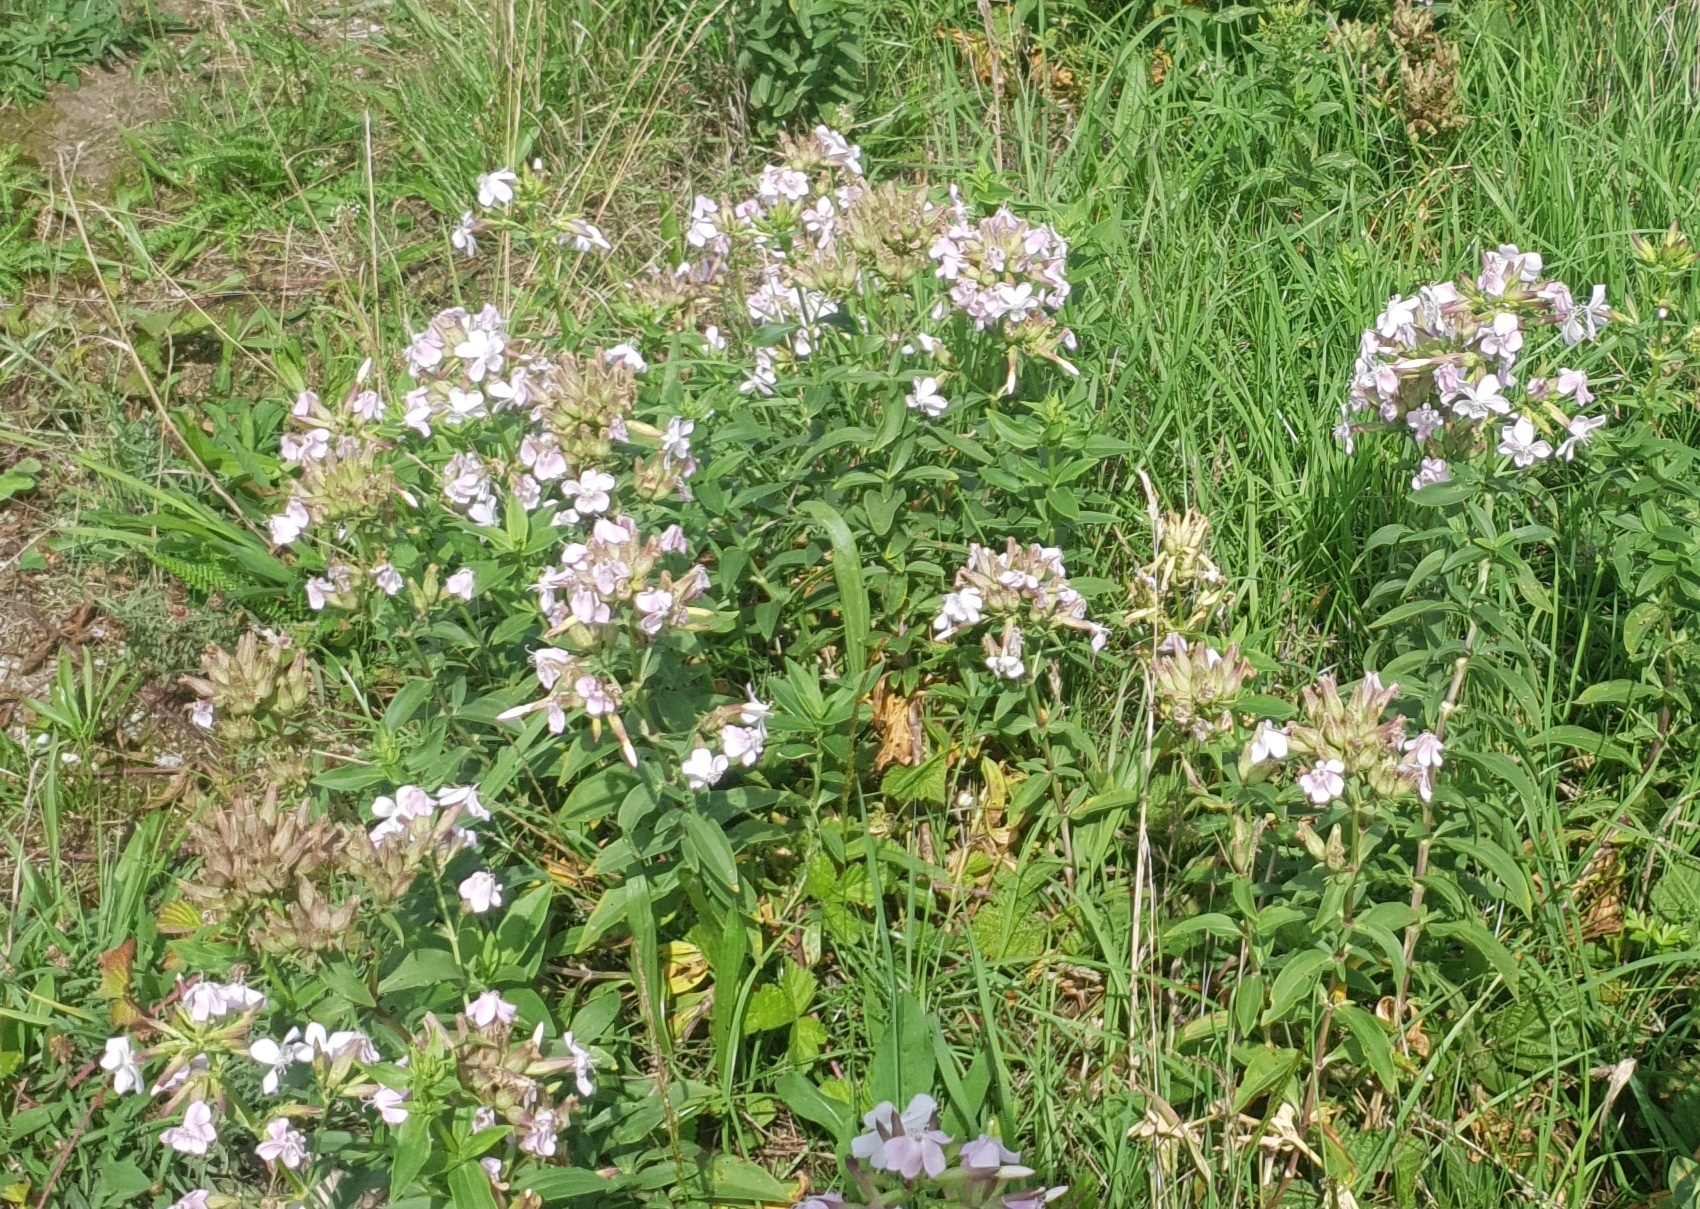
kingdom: Plantae
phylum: Tracheophyta
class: Magnoliopsida
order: Caryophyllales
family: Caryophyllaceae
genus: Saponaria
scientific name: Saponaria officinalis
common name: Soapwort
